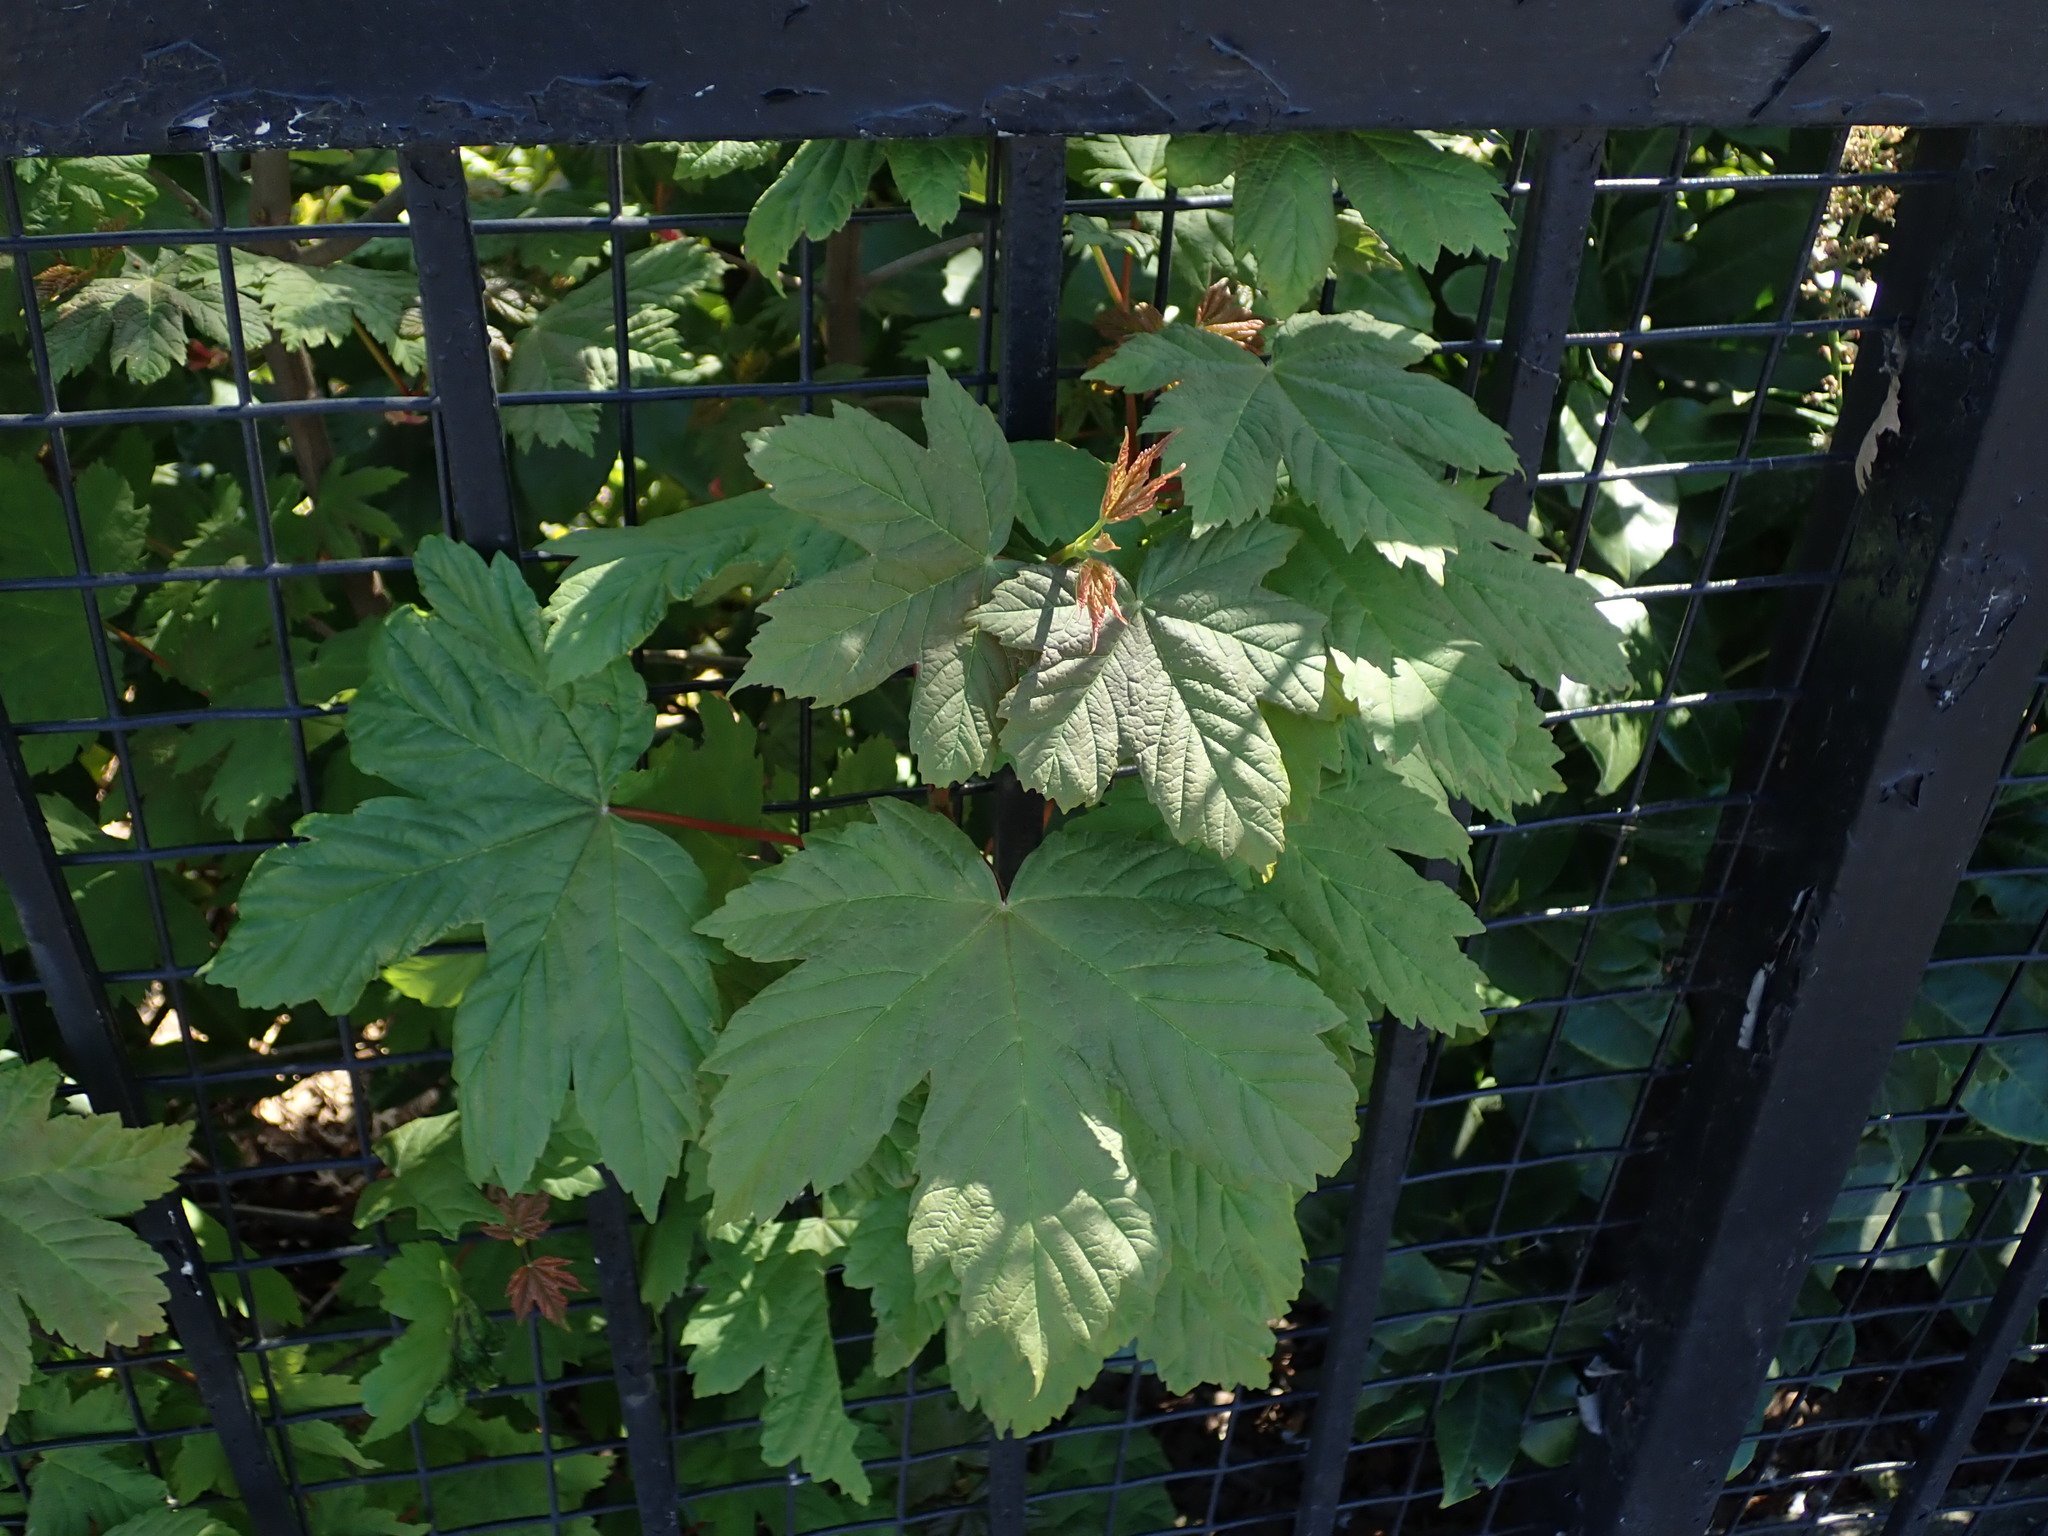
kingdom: Plantae
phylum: Tracheophyta
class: Magnoliopsida
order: Sapindales
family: Sapindaceae
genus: Acer
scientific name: Acer pseudoplatanus
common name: Sycamore
